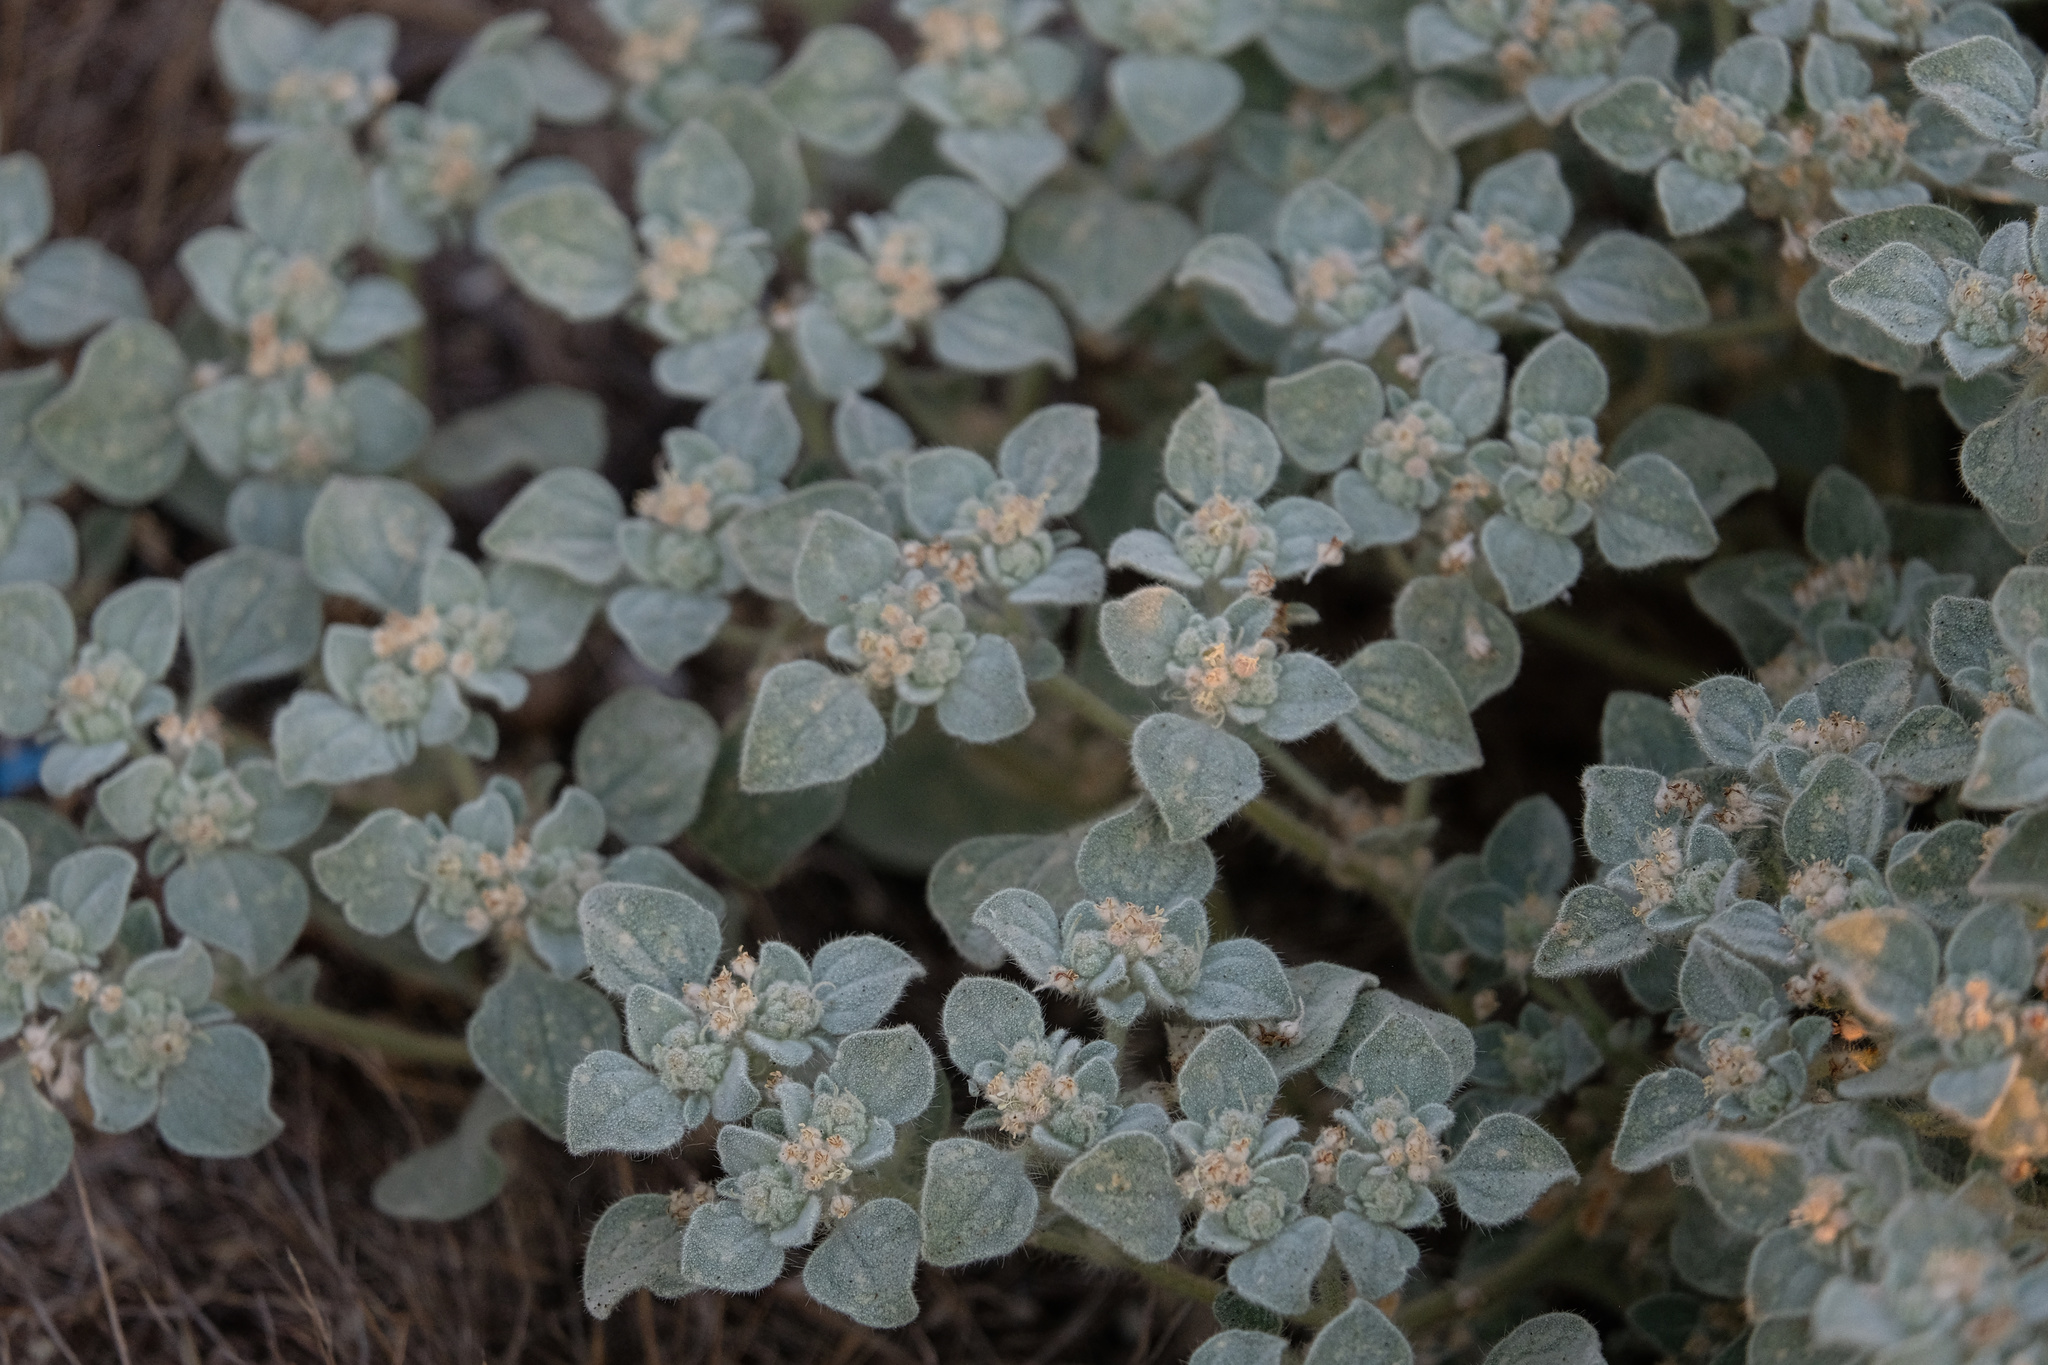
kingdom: Plantae
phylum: Tracheophyta
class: Magnoliopsida
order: Malpighiales
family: Euphorbiaceae
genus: Croton
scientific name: Croton setiger
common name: Dove weed
